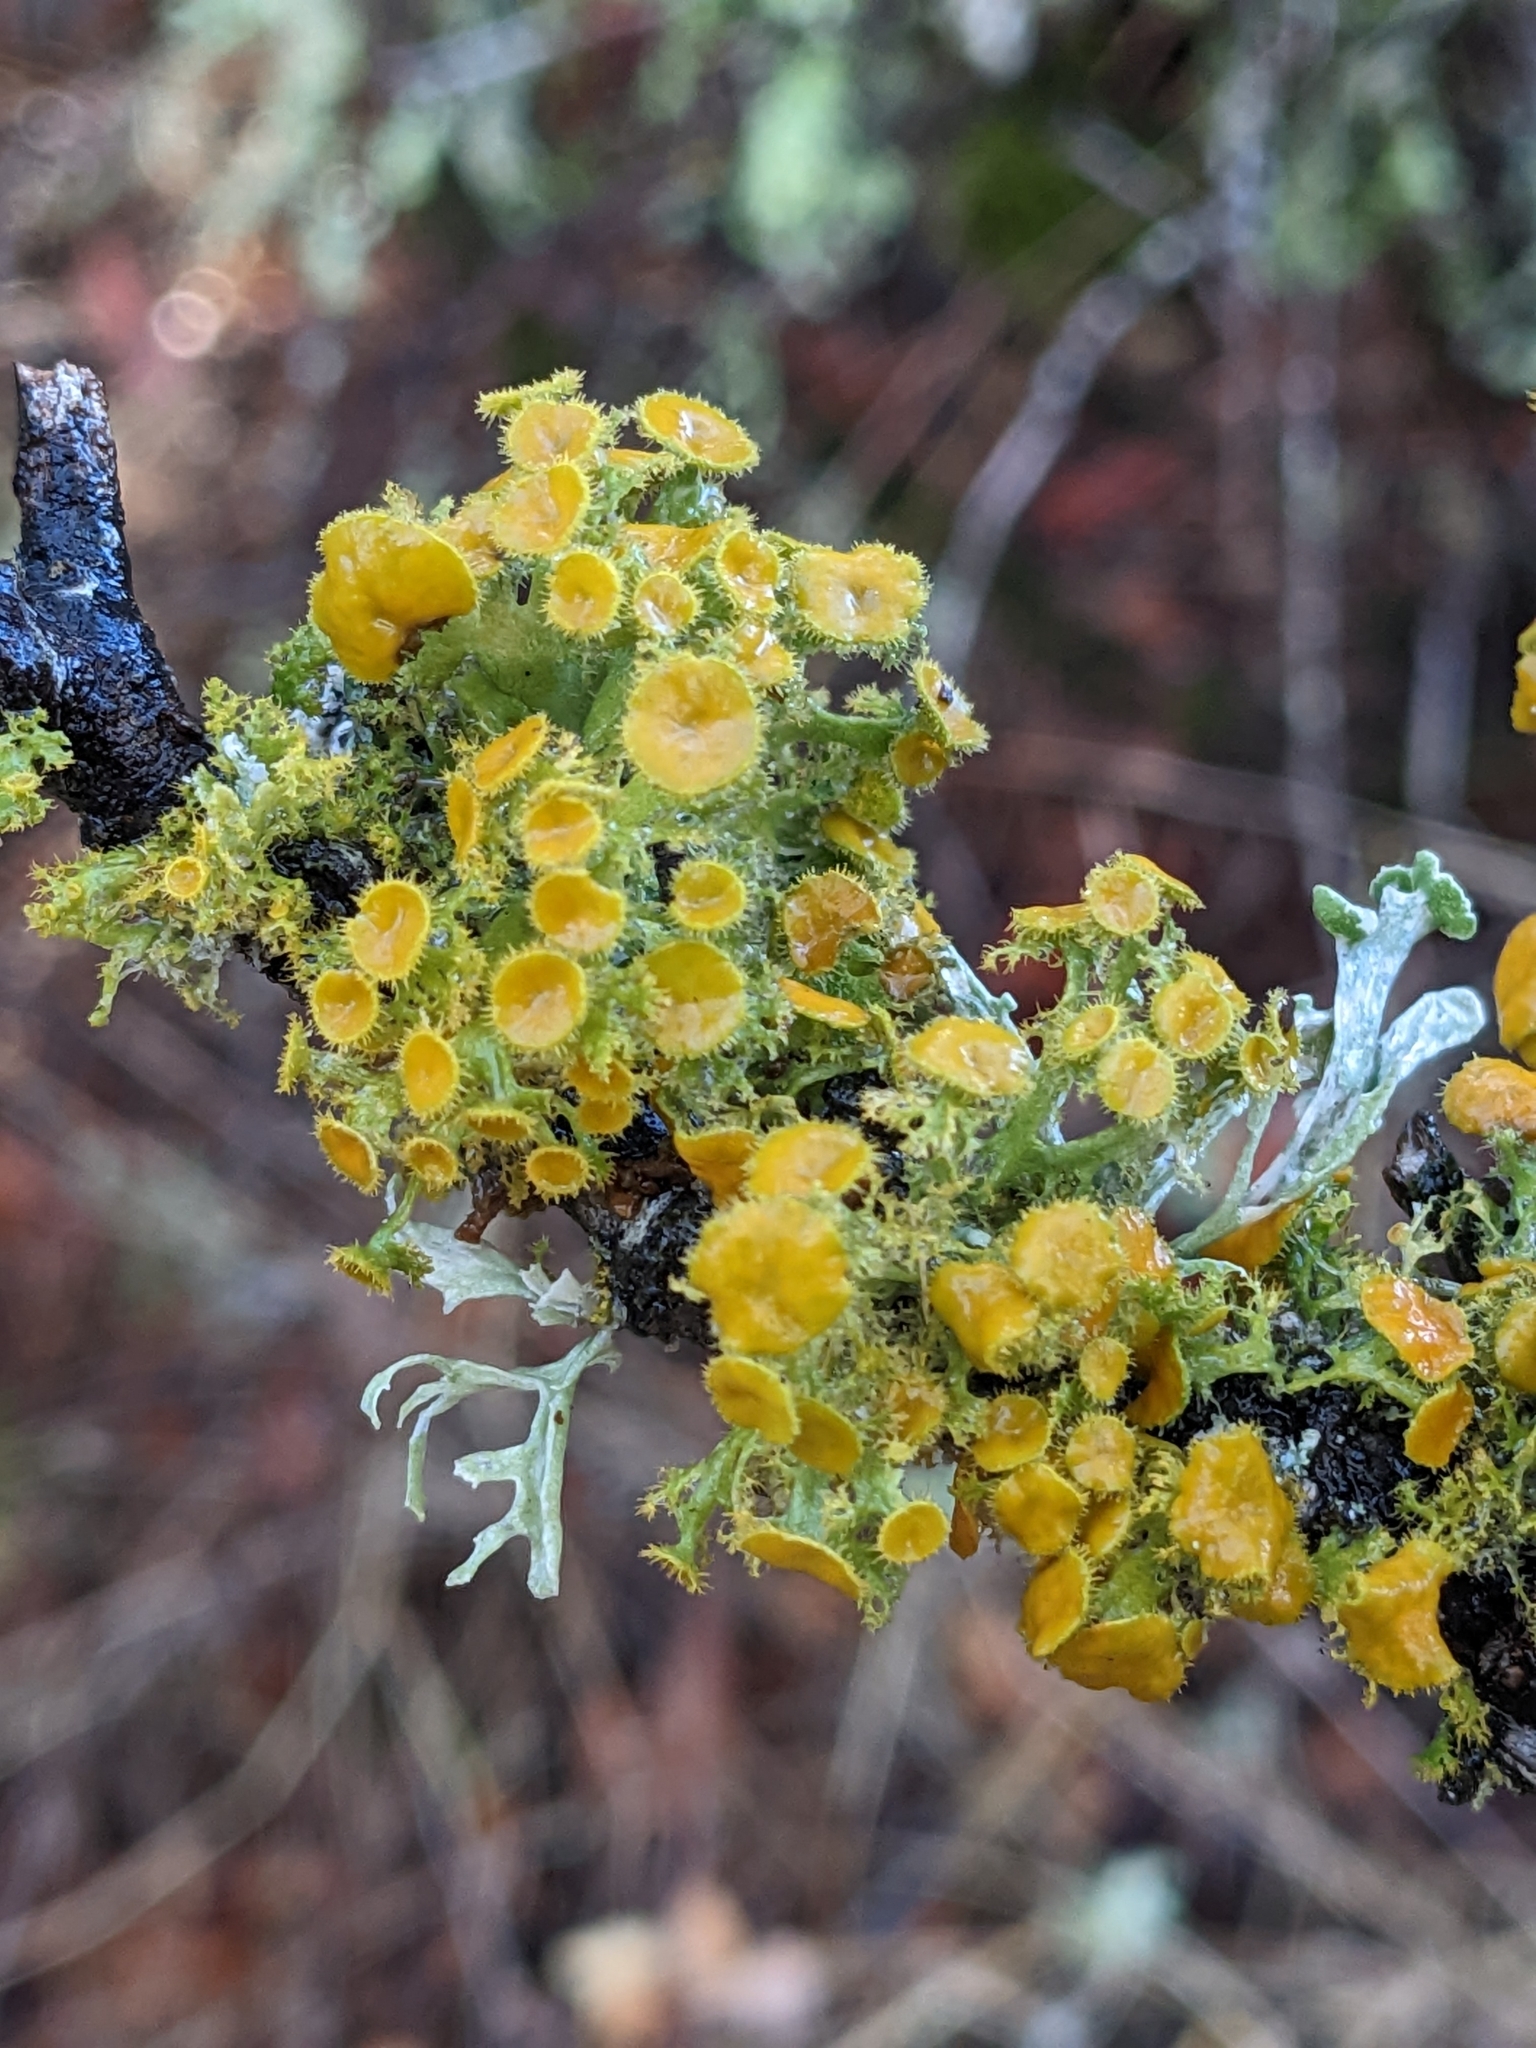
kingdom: Fungi
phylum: Ascomycota
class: Lecanoromycetes
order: Teloschistales
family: Teloschistaceae
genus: Niorma
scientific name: Niorma chrysophthalma
